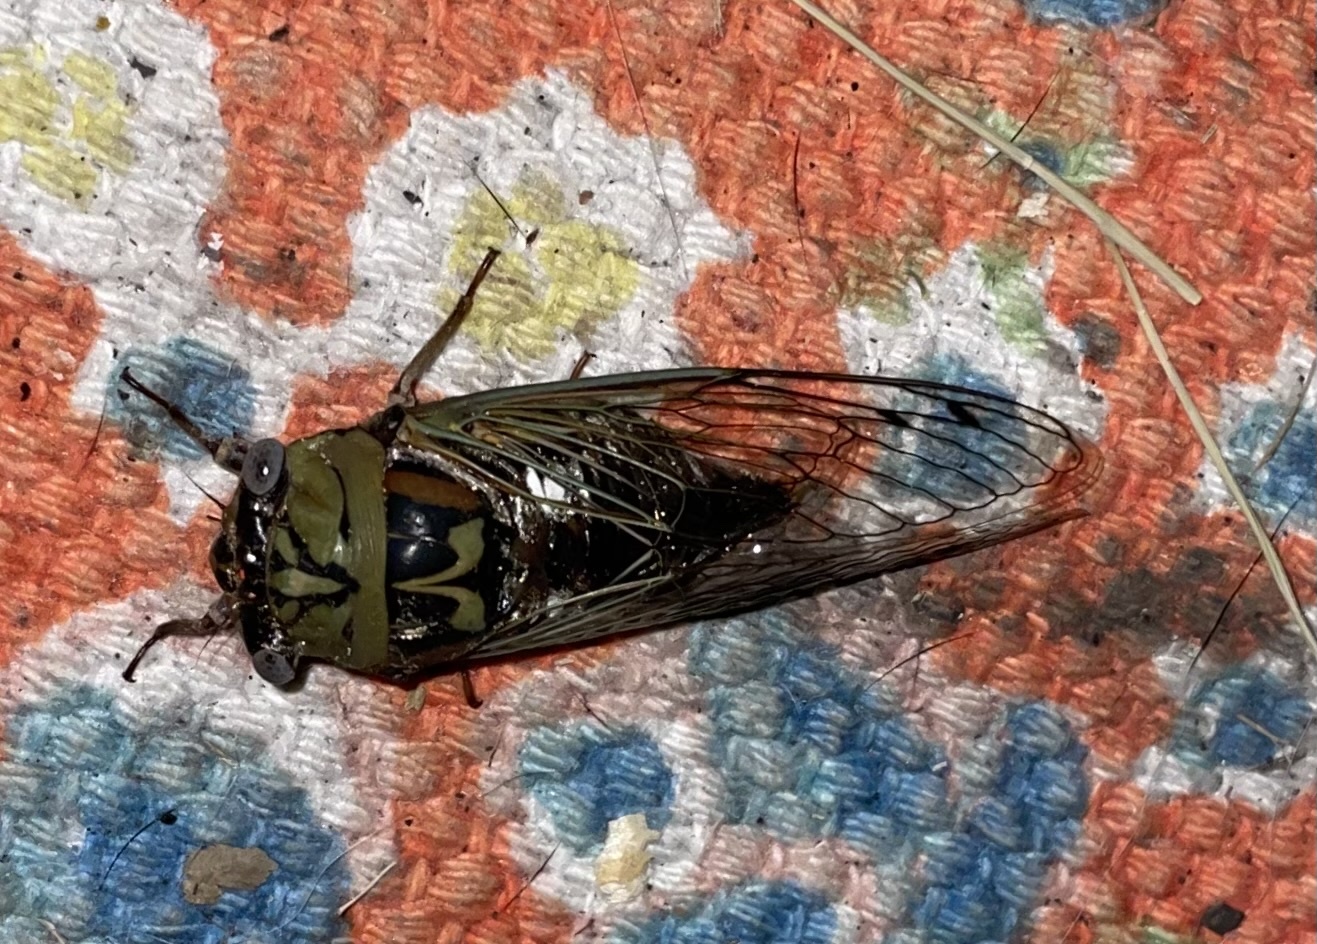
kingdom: Animalia
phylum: Arthropoda
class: Insecta
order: Hemiptera
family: Cicadidae
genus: Megatibicen
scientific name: Megatibicen resh
